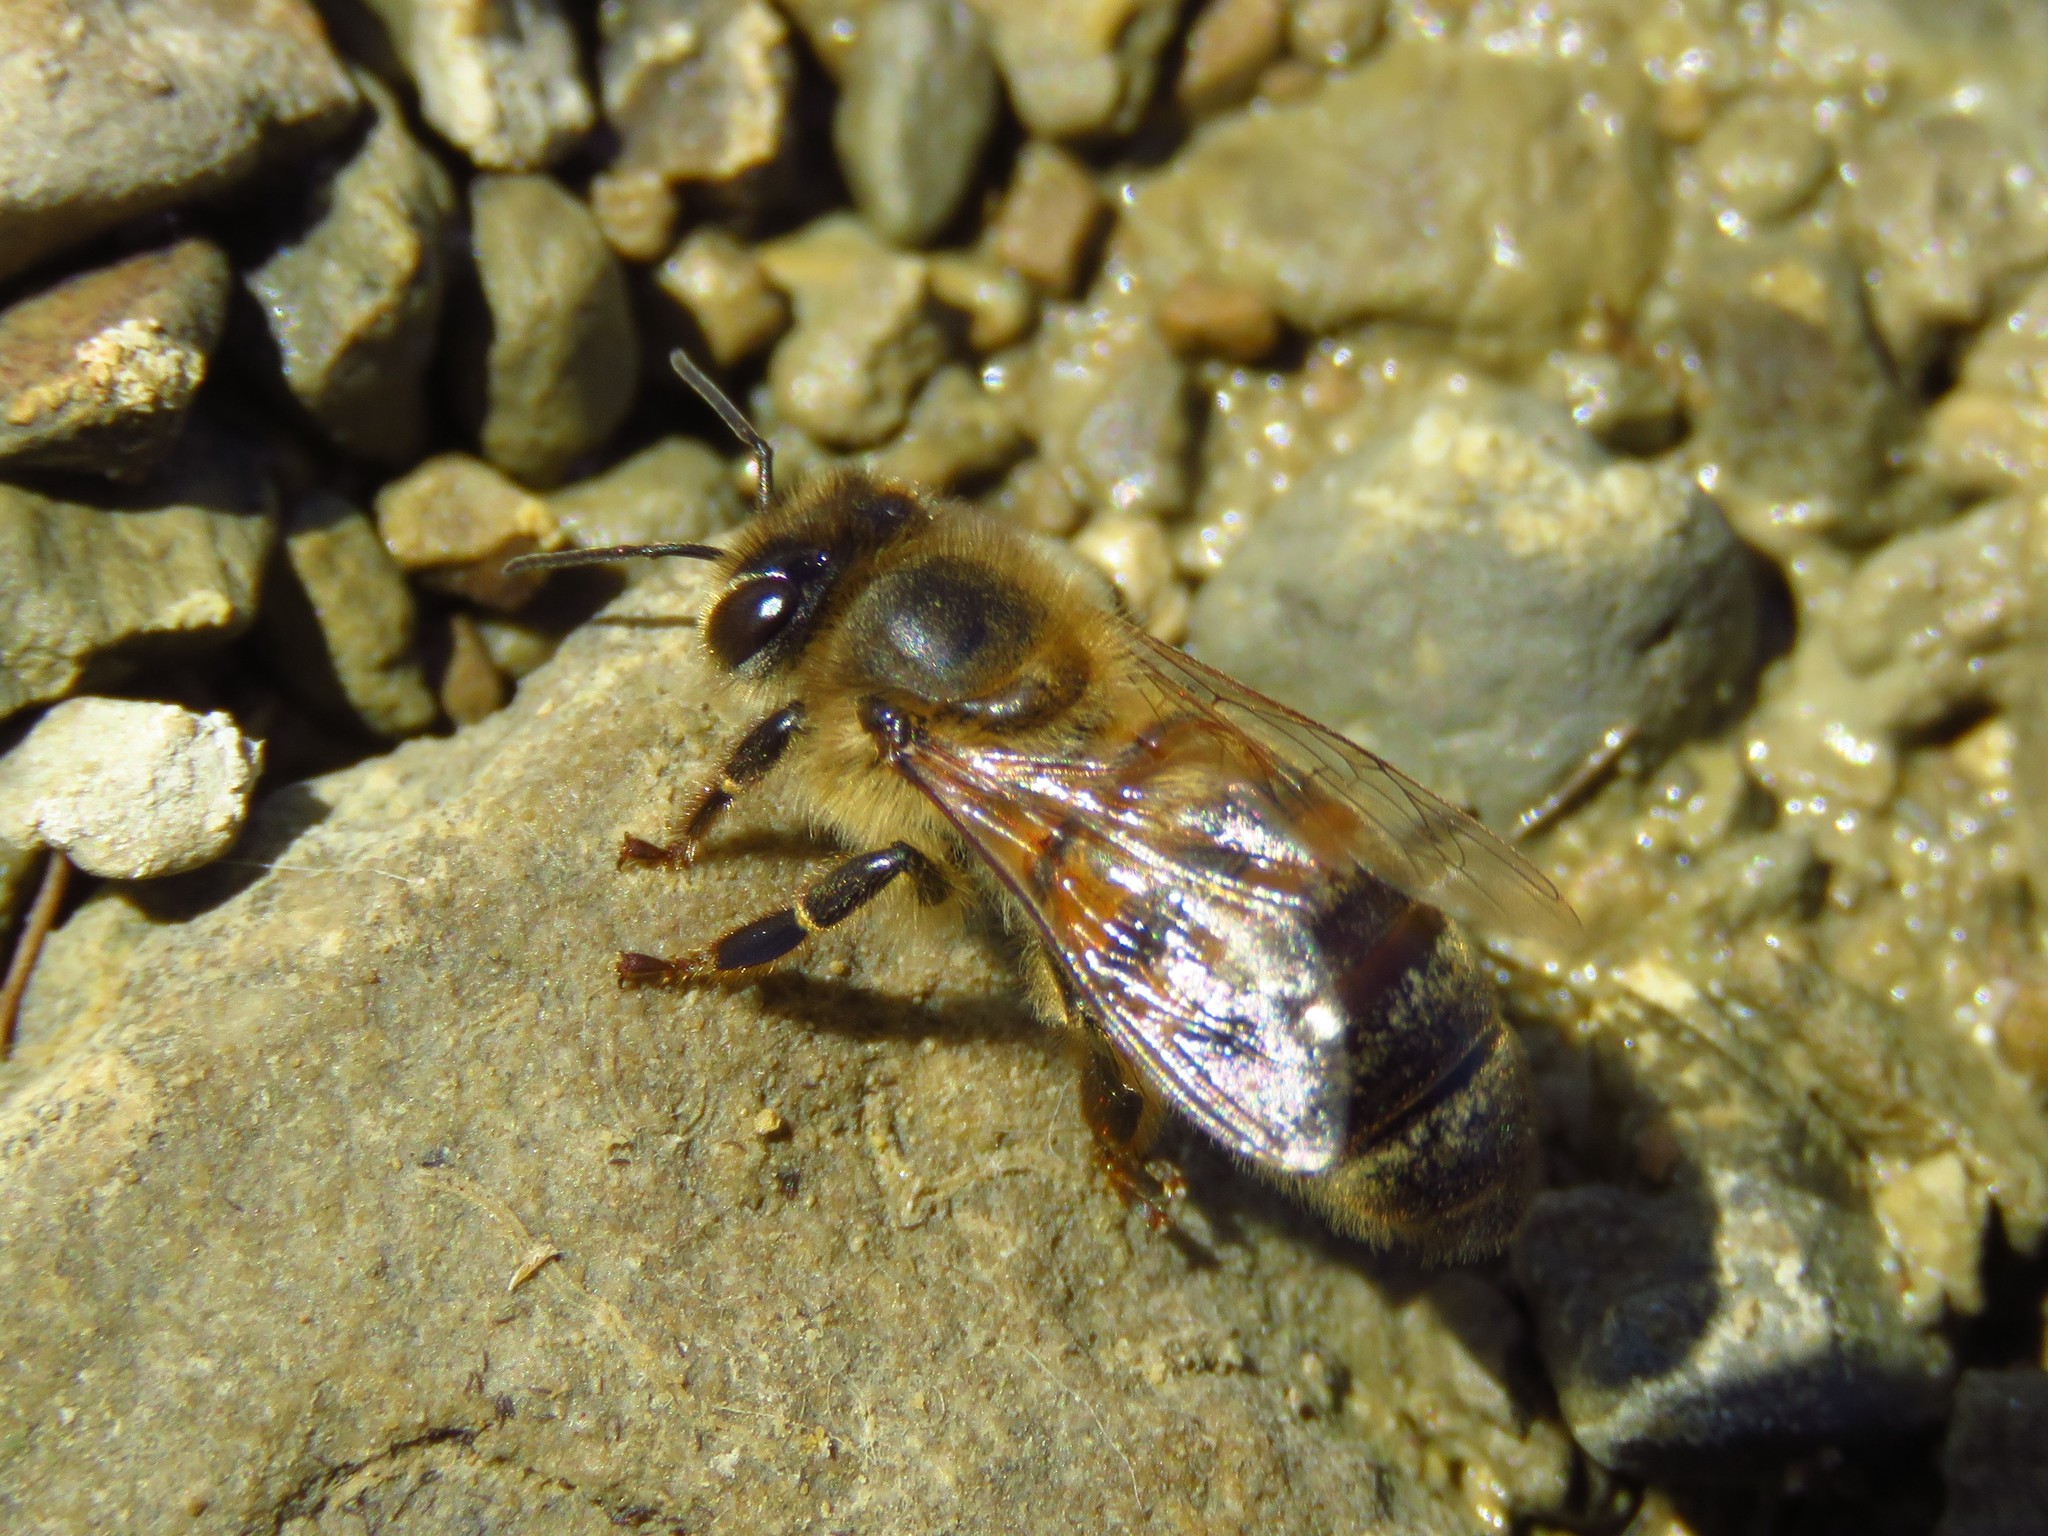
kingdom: Animalia
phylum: Arthropoda
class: Insecta
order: Hymenoptera
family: Apidae
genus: Apis
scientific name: Apis mellifera
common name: Honey bee
